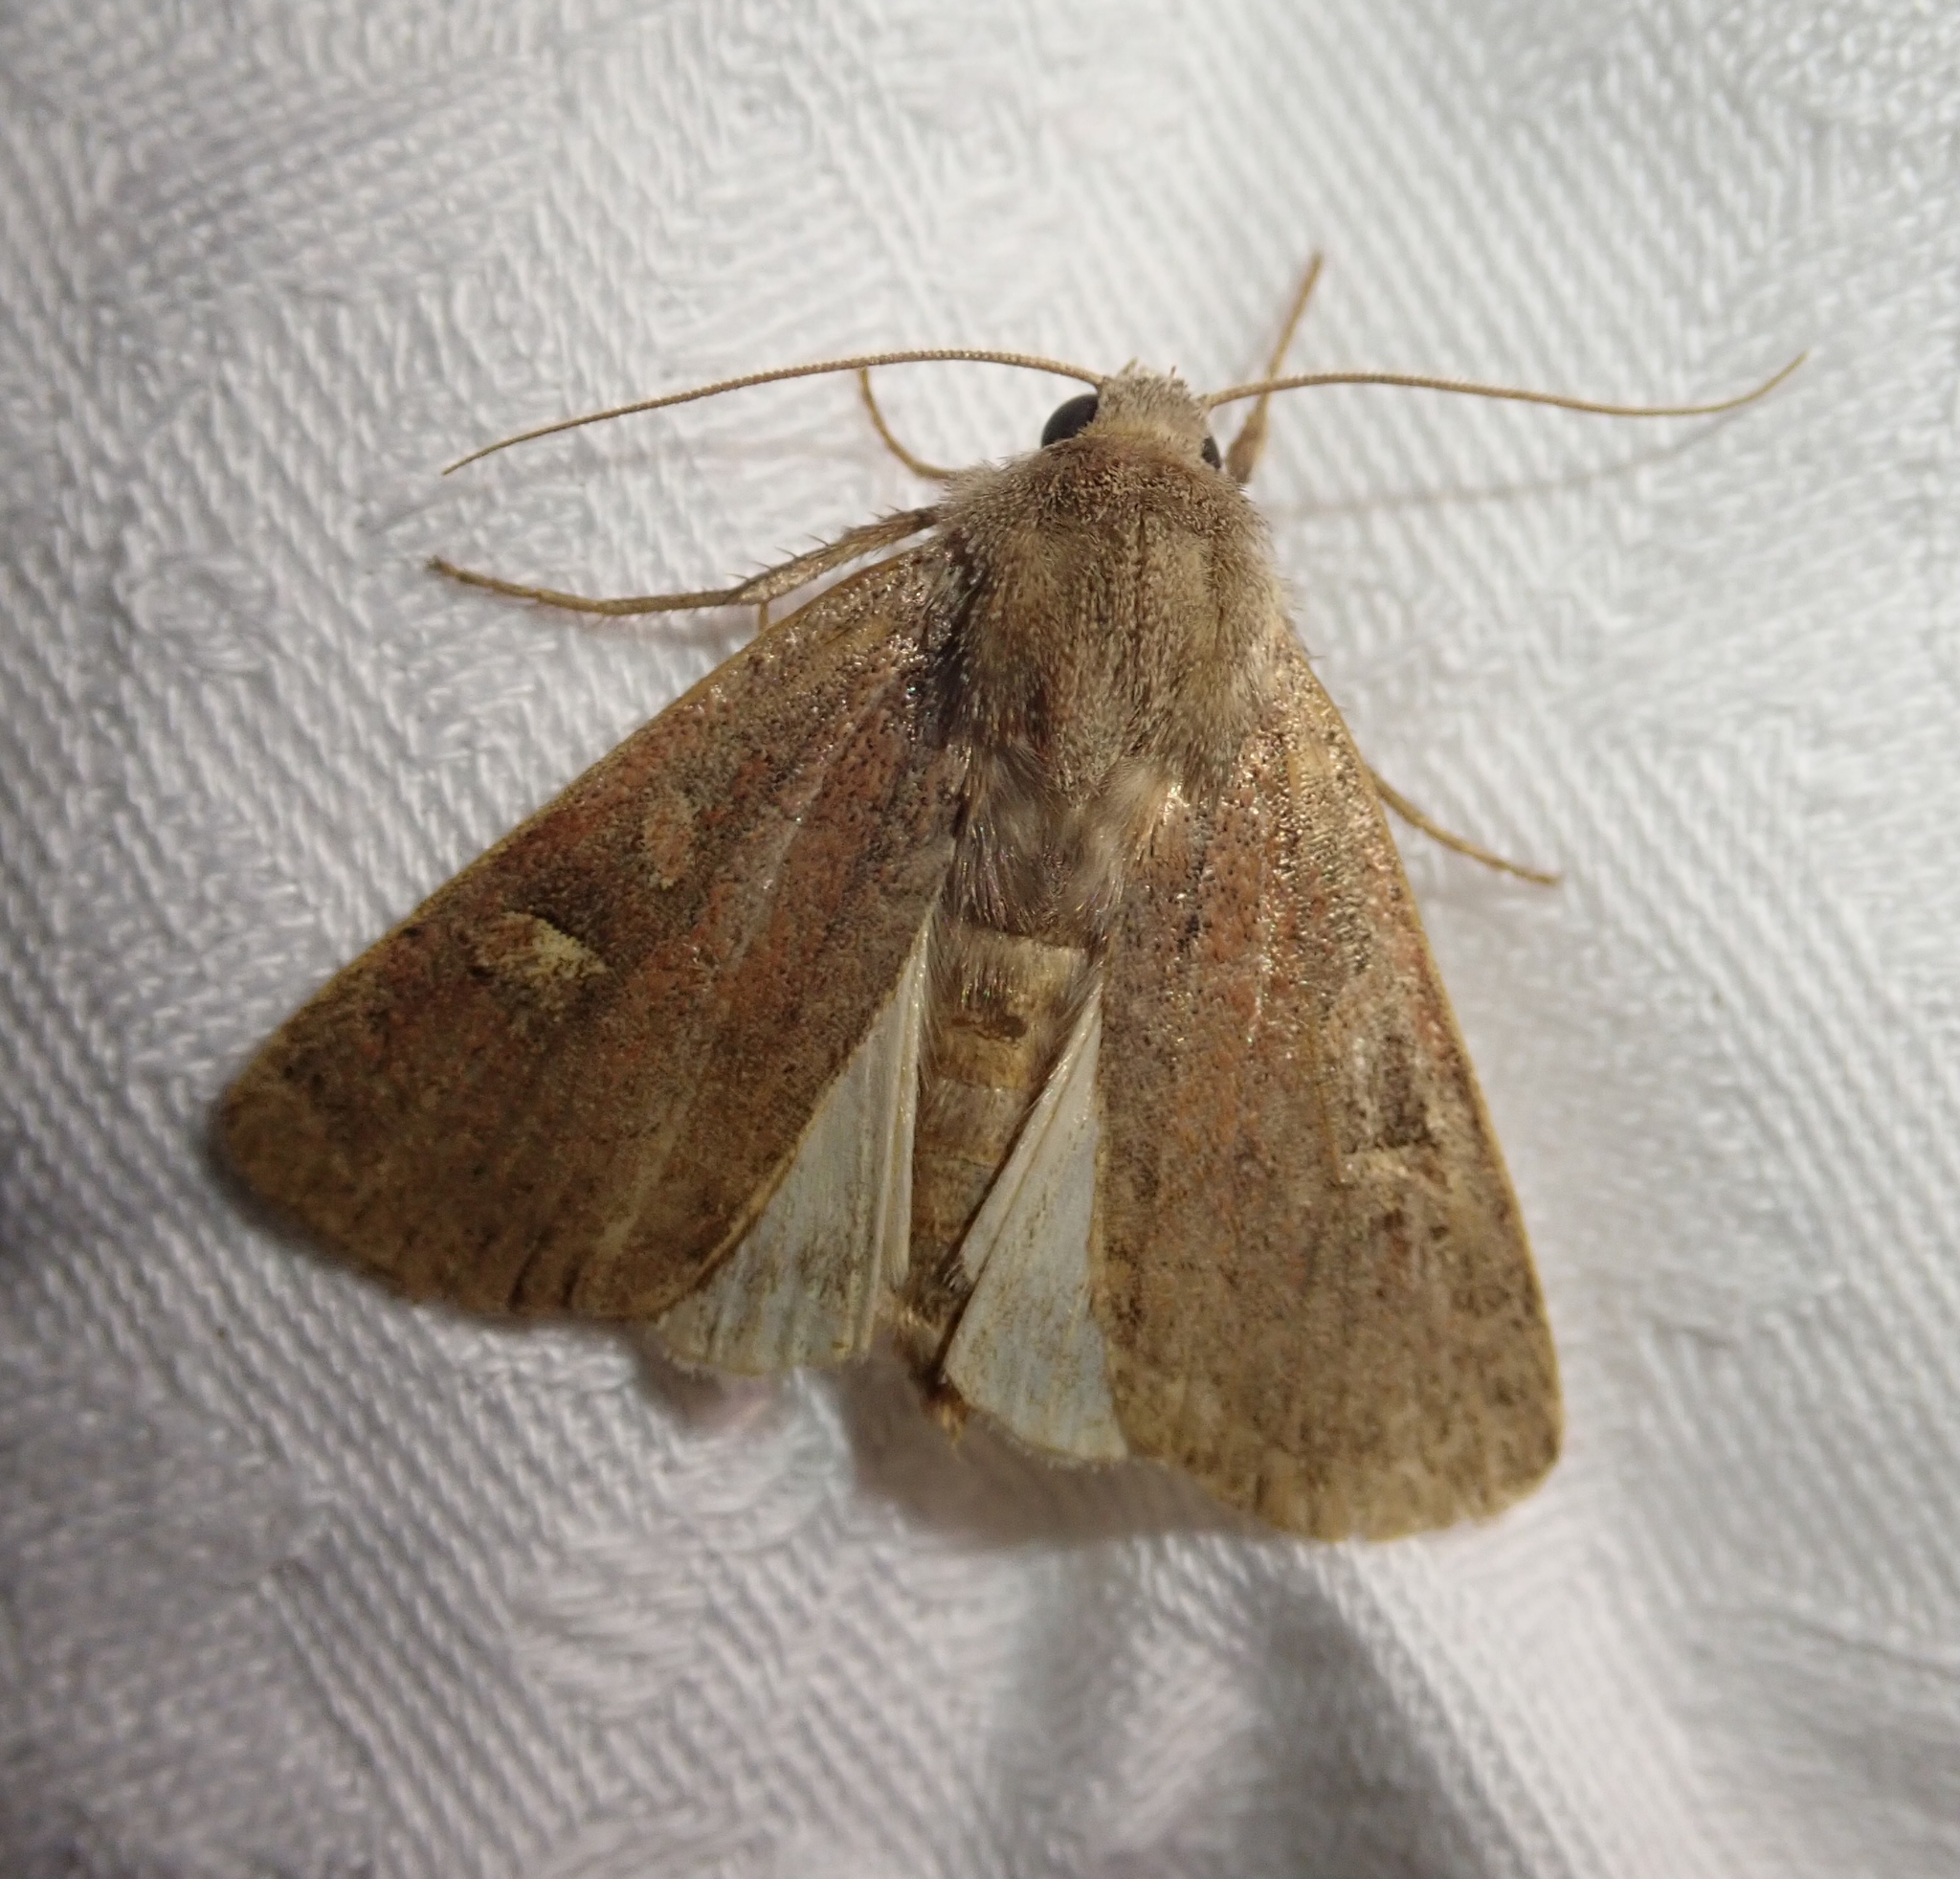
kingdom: Animalia
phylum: Arthropoda
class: Insecta
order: Lepidoptera
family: Noctuidae
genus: Xestia
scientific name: Xestia xanthographa
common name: Square-spot rustic
